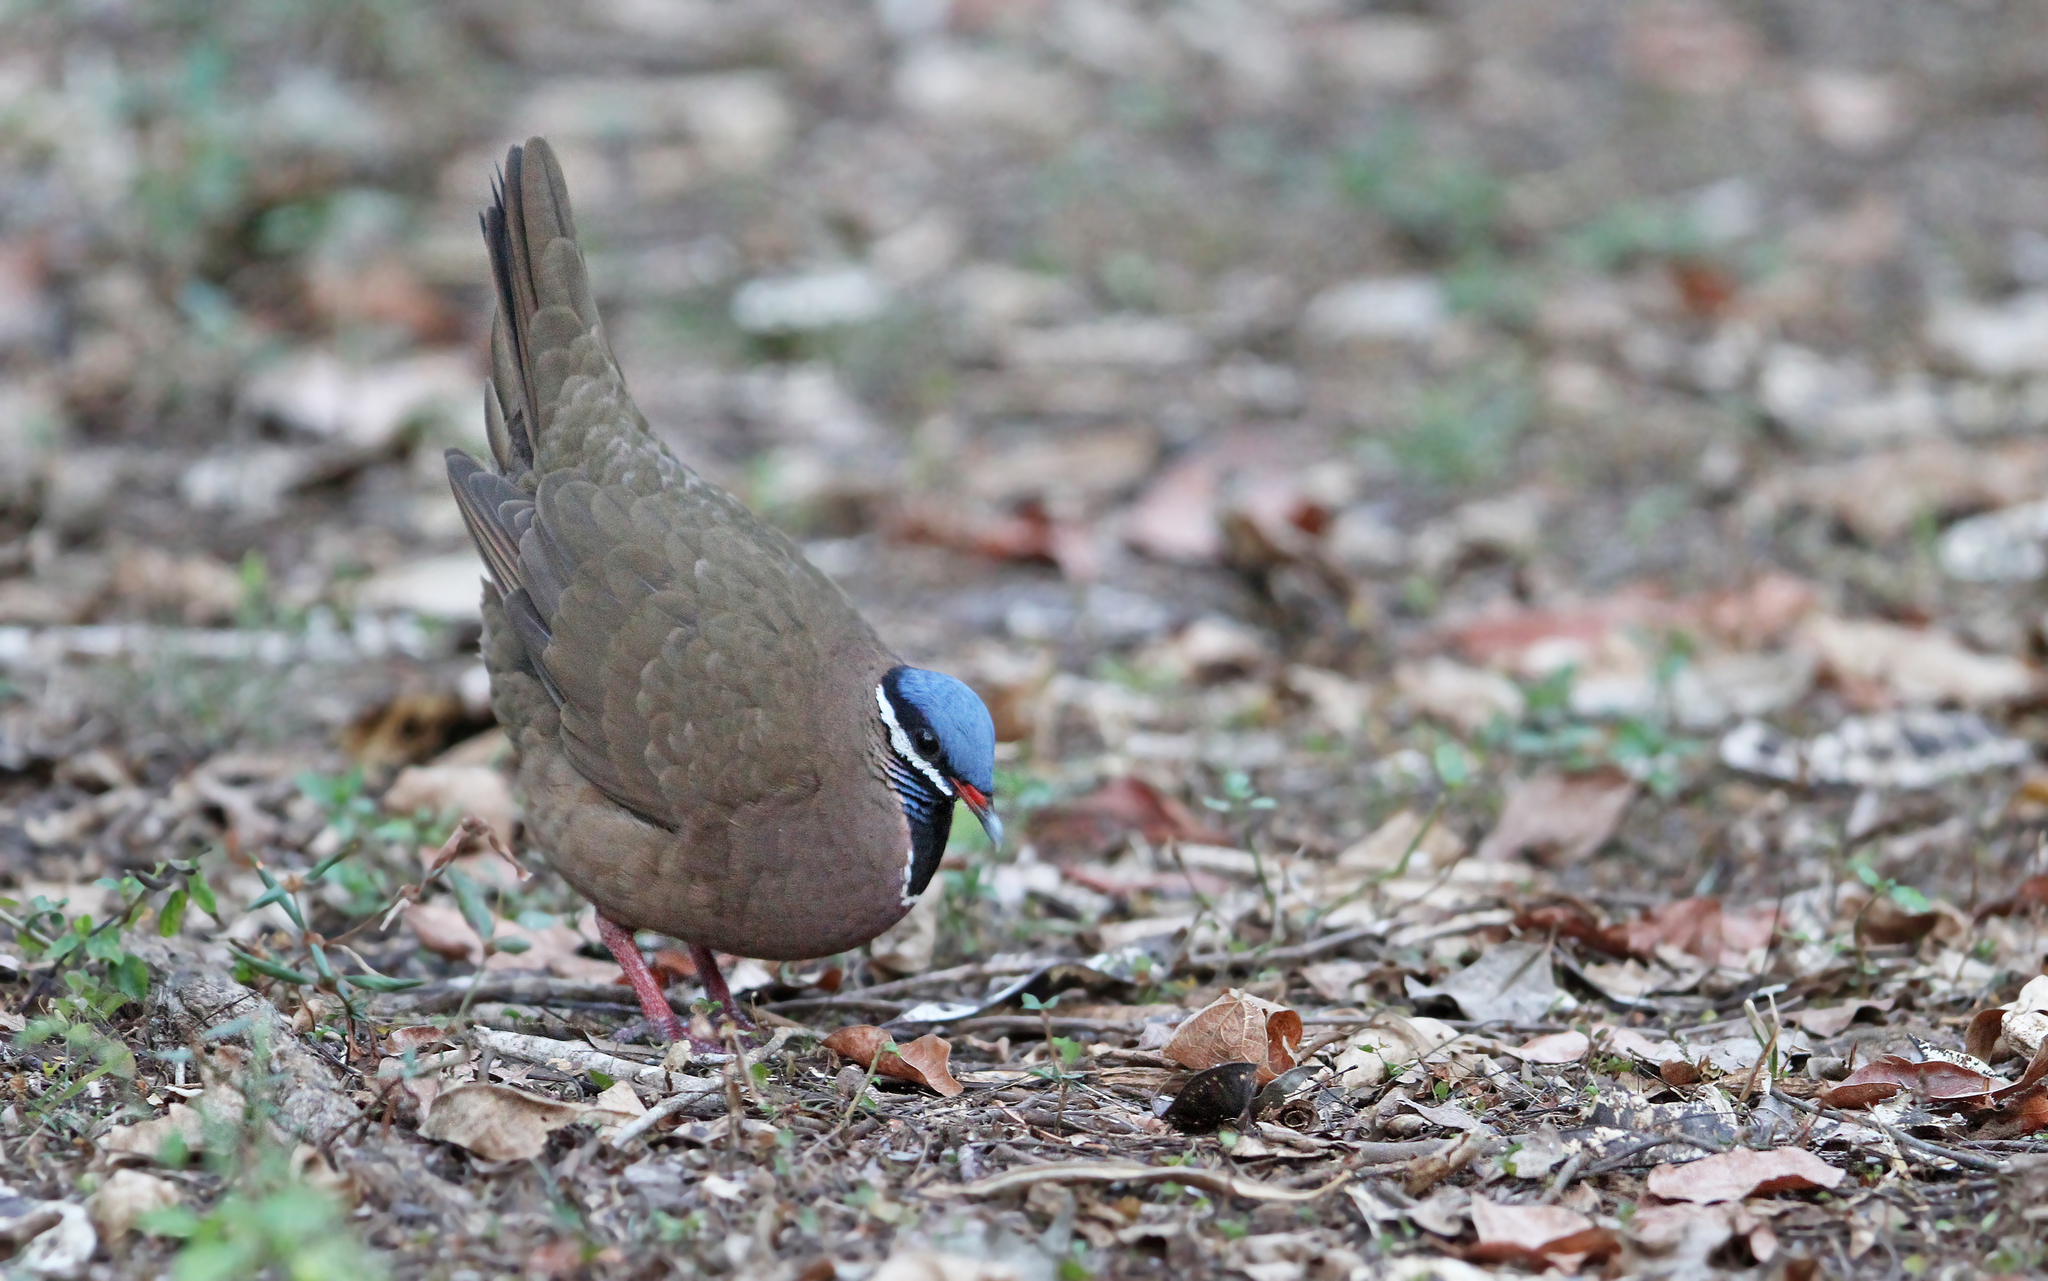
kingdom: Animalia
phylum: Chordata
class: Aves
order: Columbiformes
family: Columbidae
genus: Starnoenas
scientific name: Starnoenas cyanocephala
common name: Blue-headed quail-dove
